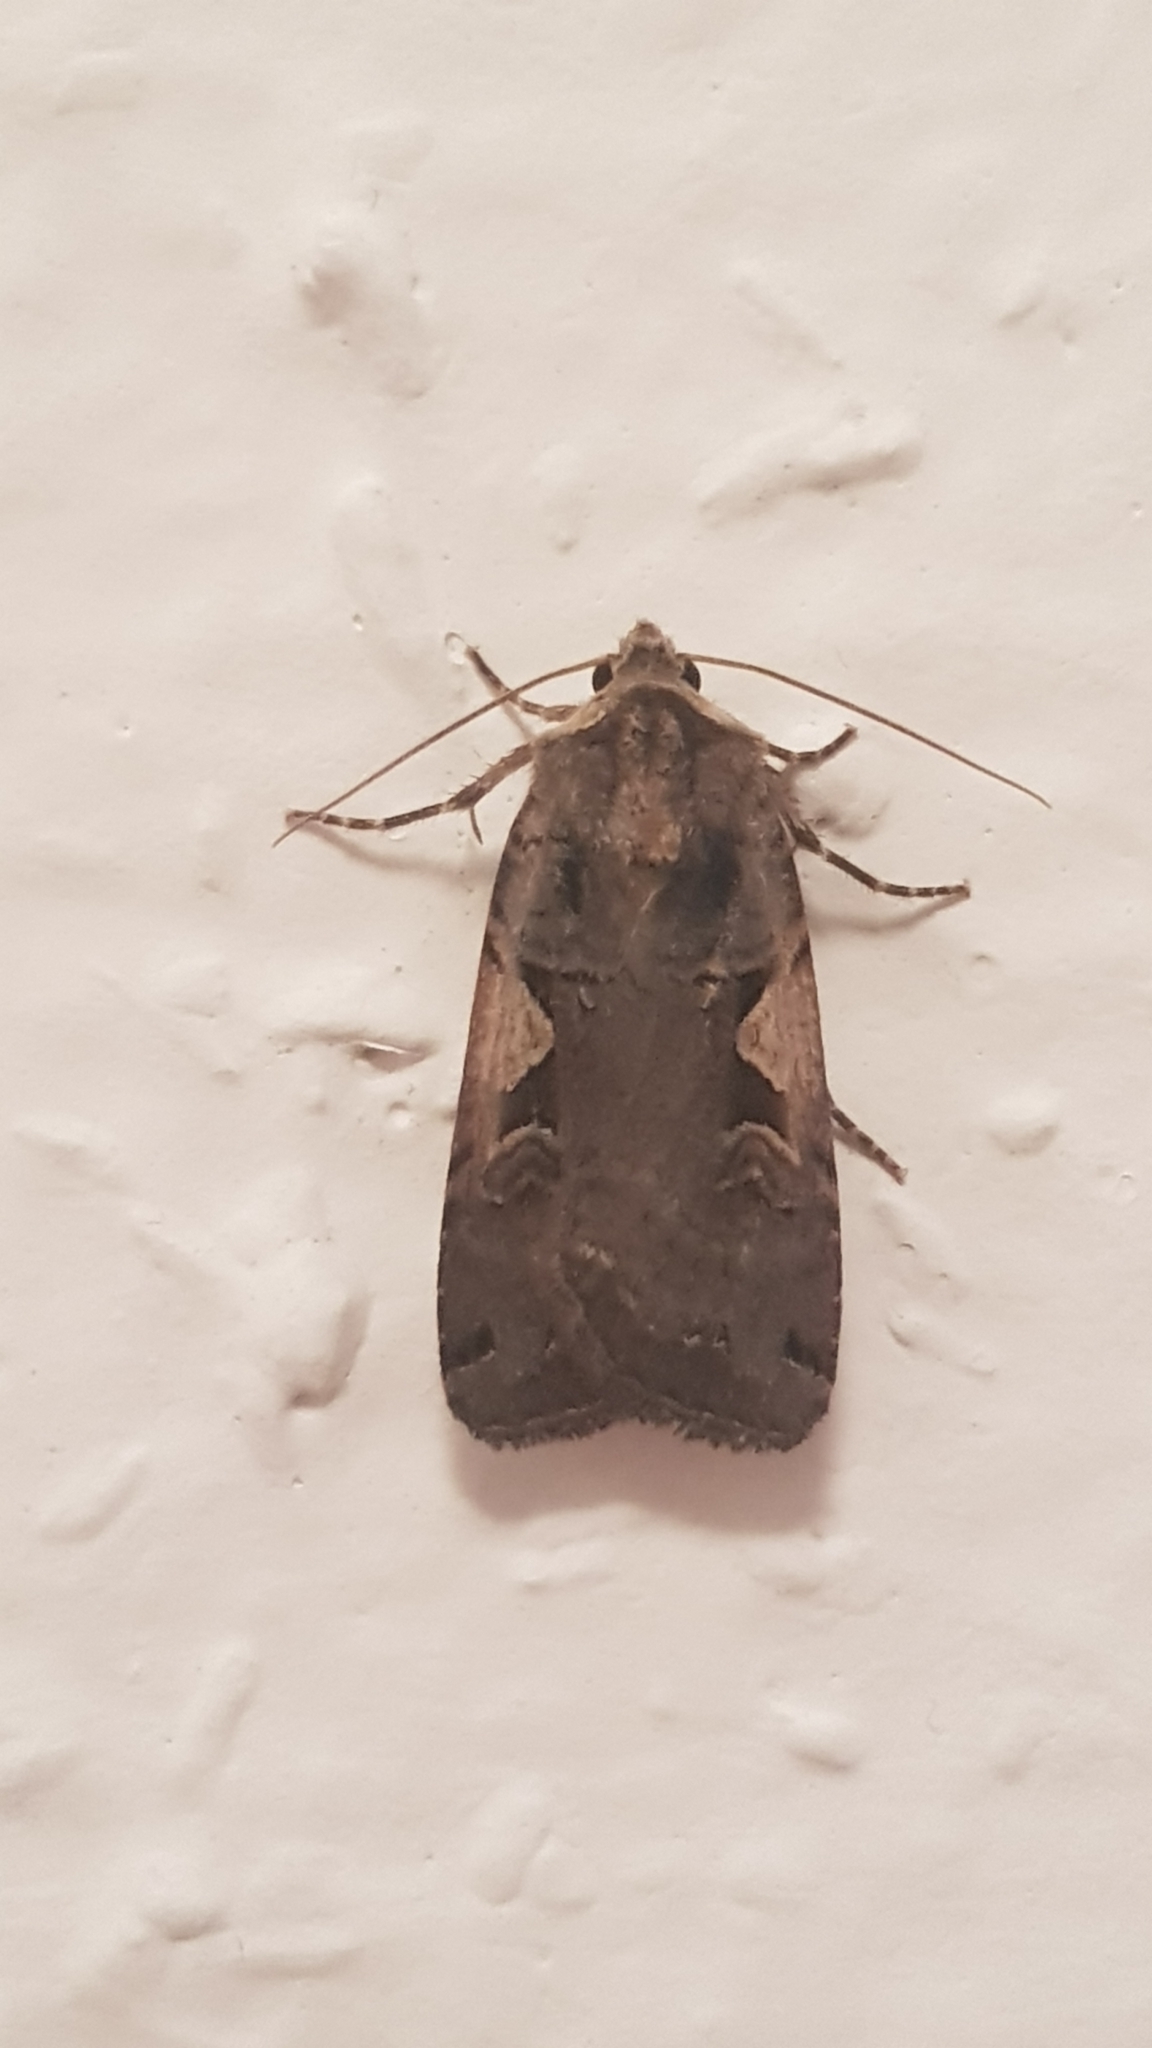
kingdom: Animalia
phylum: Arthropoda
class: Insecta
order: Lepidoptera
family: Noctuidae
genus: Xestia
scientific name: Xestia c-nigrum
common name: Setaceous hebrew character
